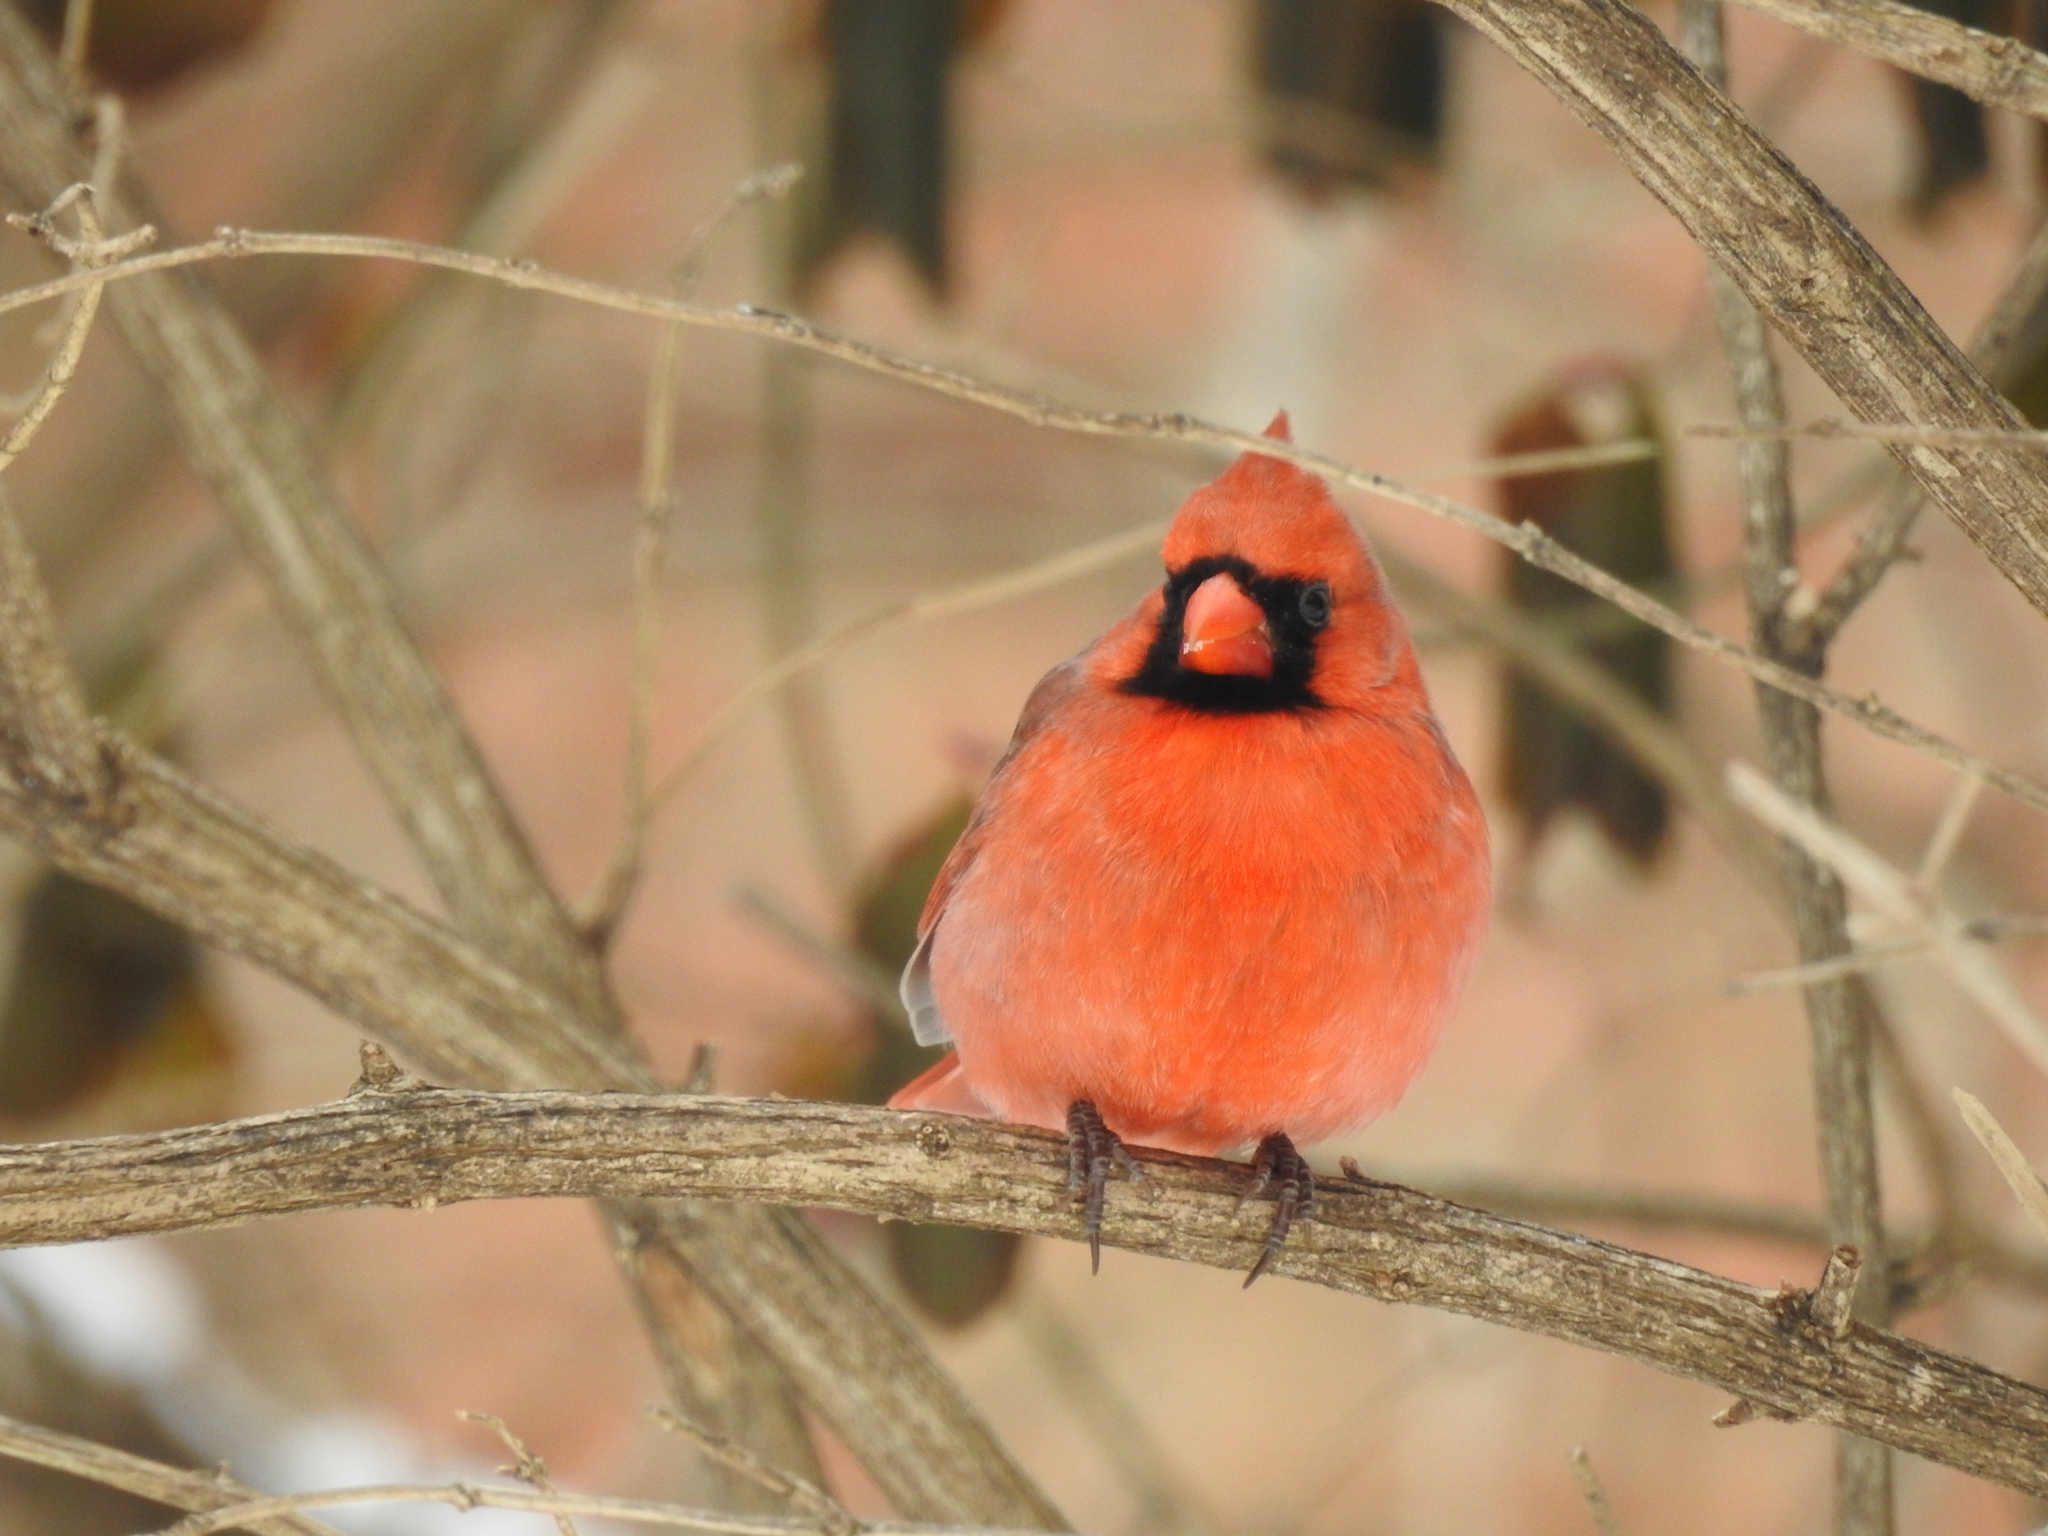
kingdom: Animalia
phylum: Chordata
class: Aves
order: Passeriformes
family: Cardinalidae
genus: Cardinalis
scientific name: Cardinalis cardinalis
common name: Northern cardinal
